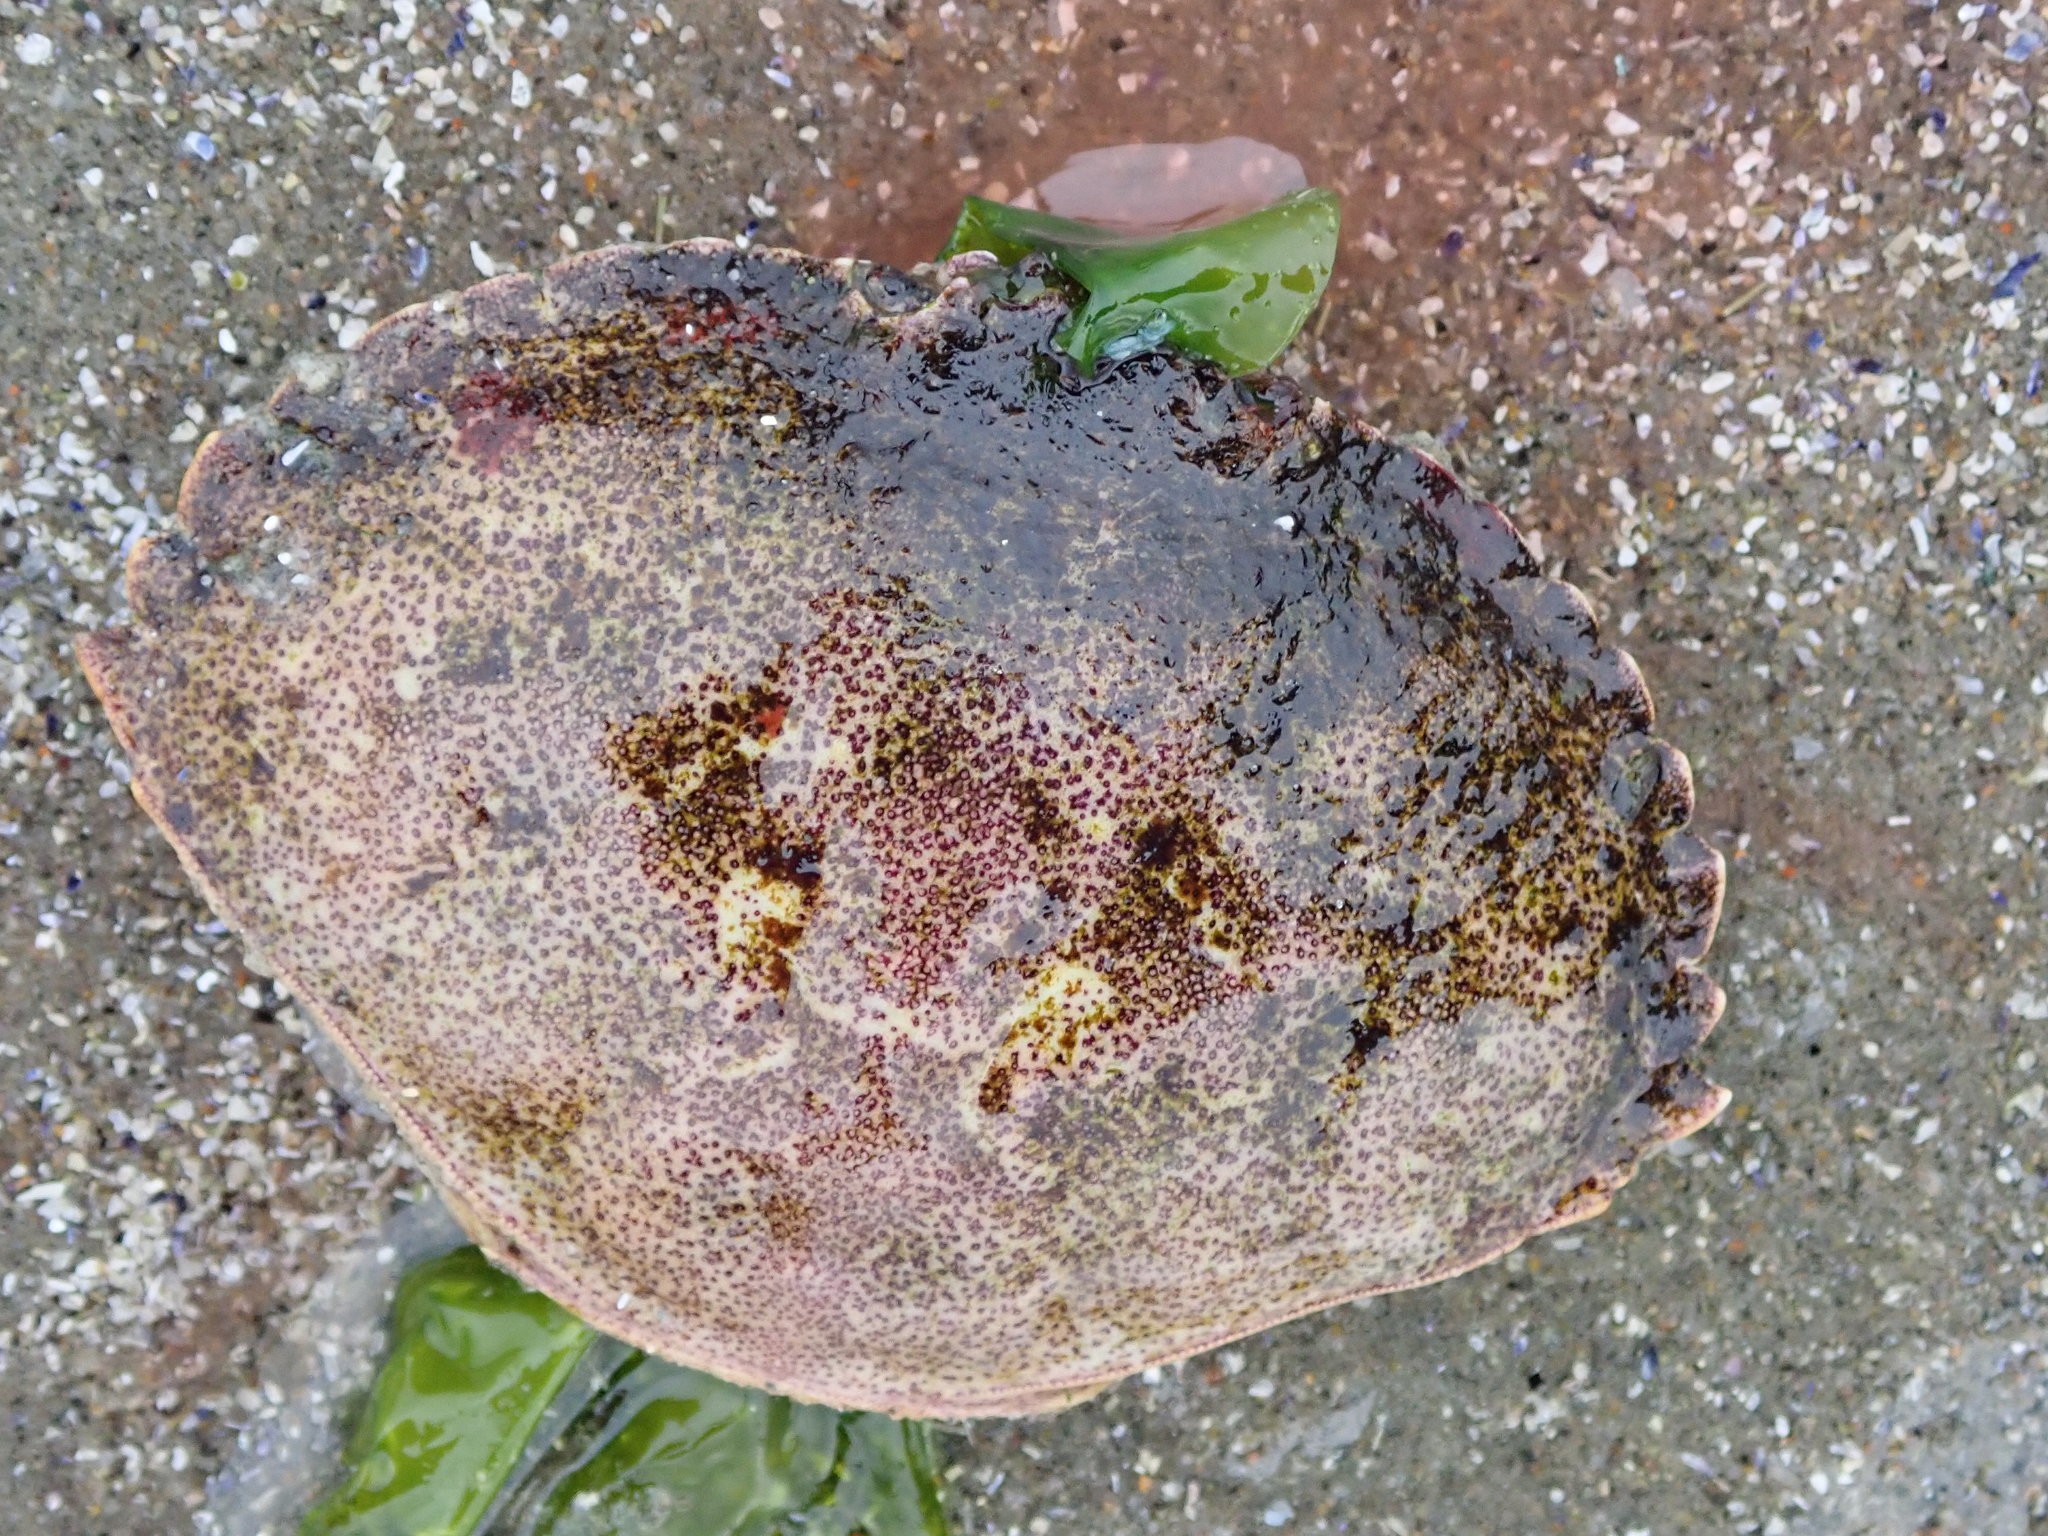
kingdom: Animalia
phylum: Arthropoda
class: Malacostraca
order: Decapoda
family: Cancridae
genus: Cancer
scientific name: Cancer borealis
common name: Jonah crab
